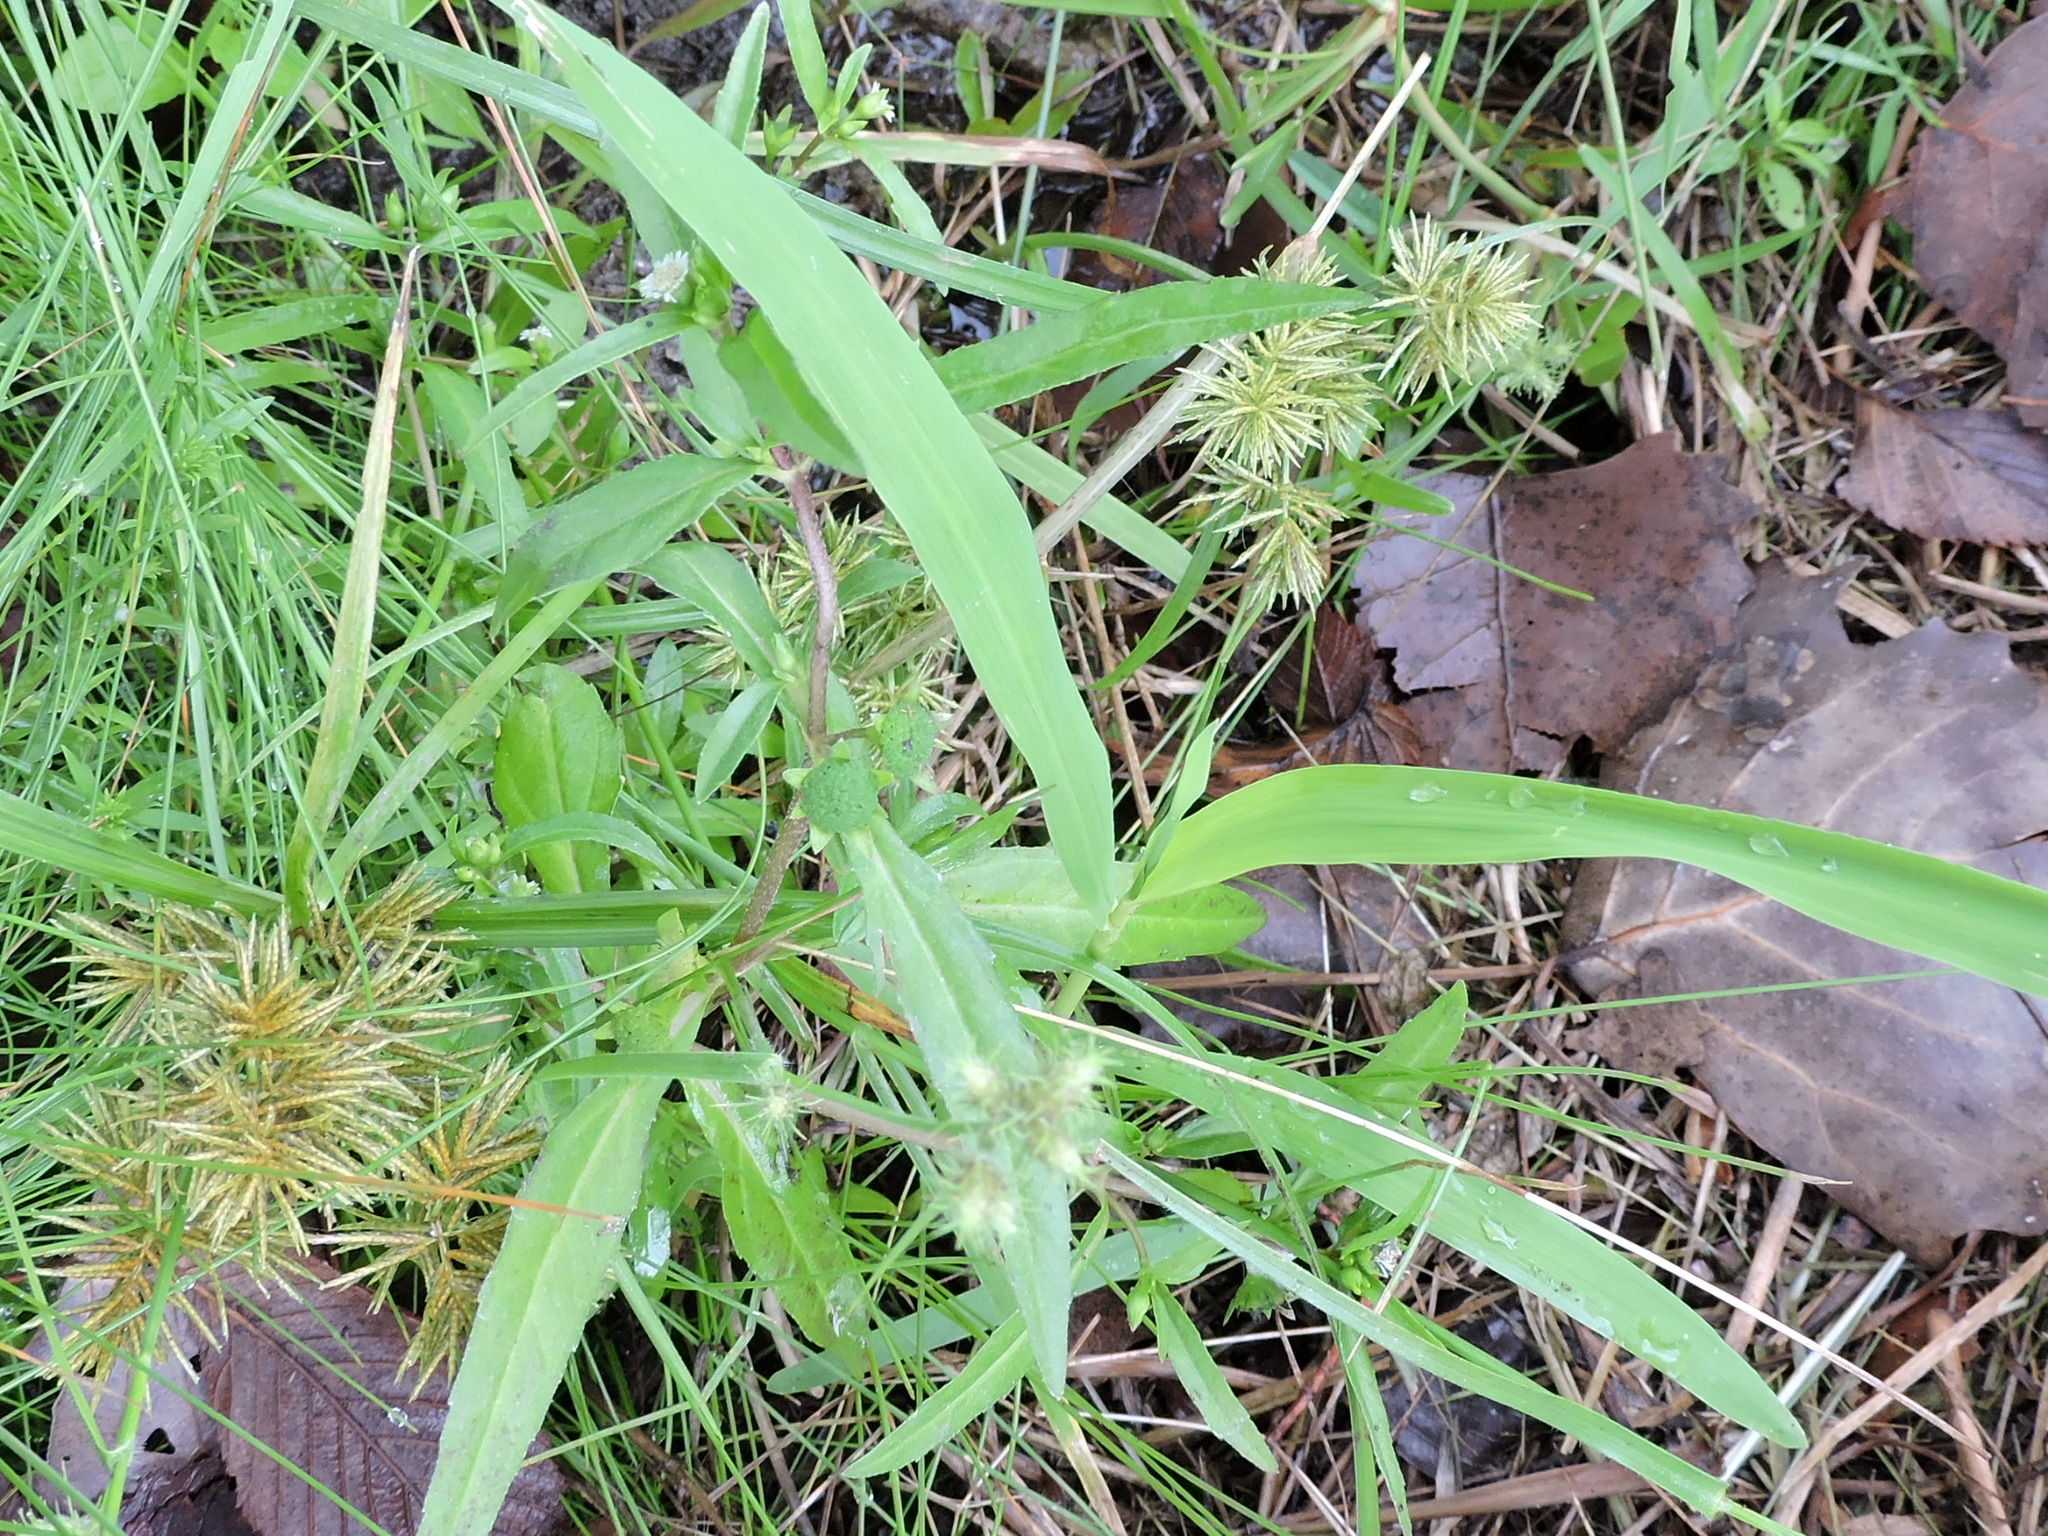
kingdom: Plantae
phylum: Tracheophyta
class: Magnoliopsida
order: Asterales
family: Asteraceae
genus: Eclipta
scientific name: Eclipta prostrata
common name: False daisy
